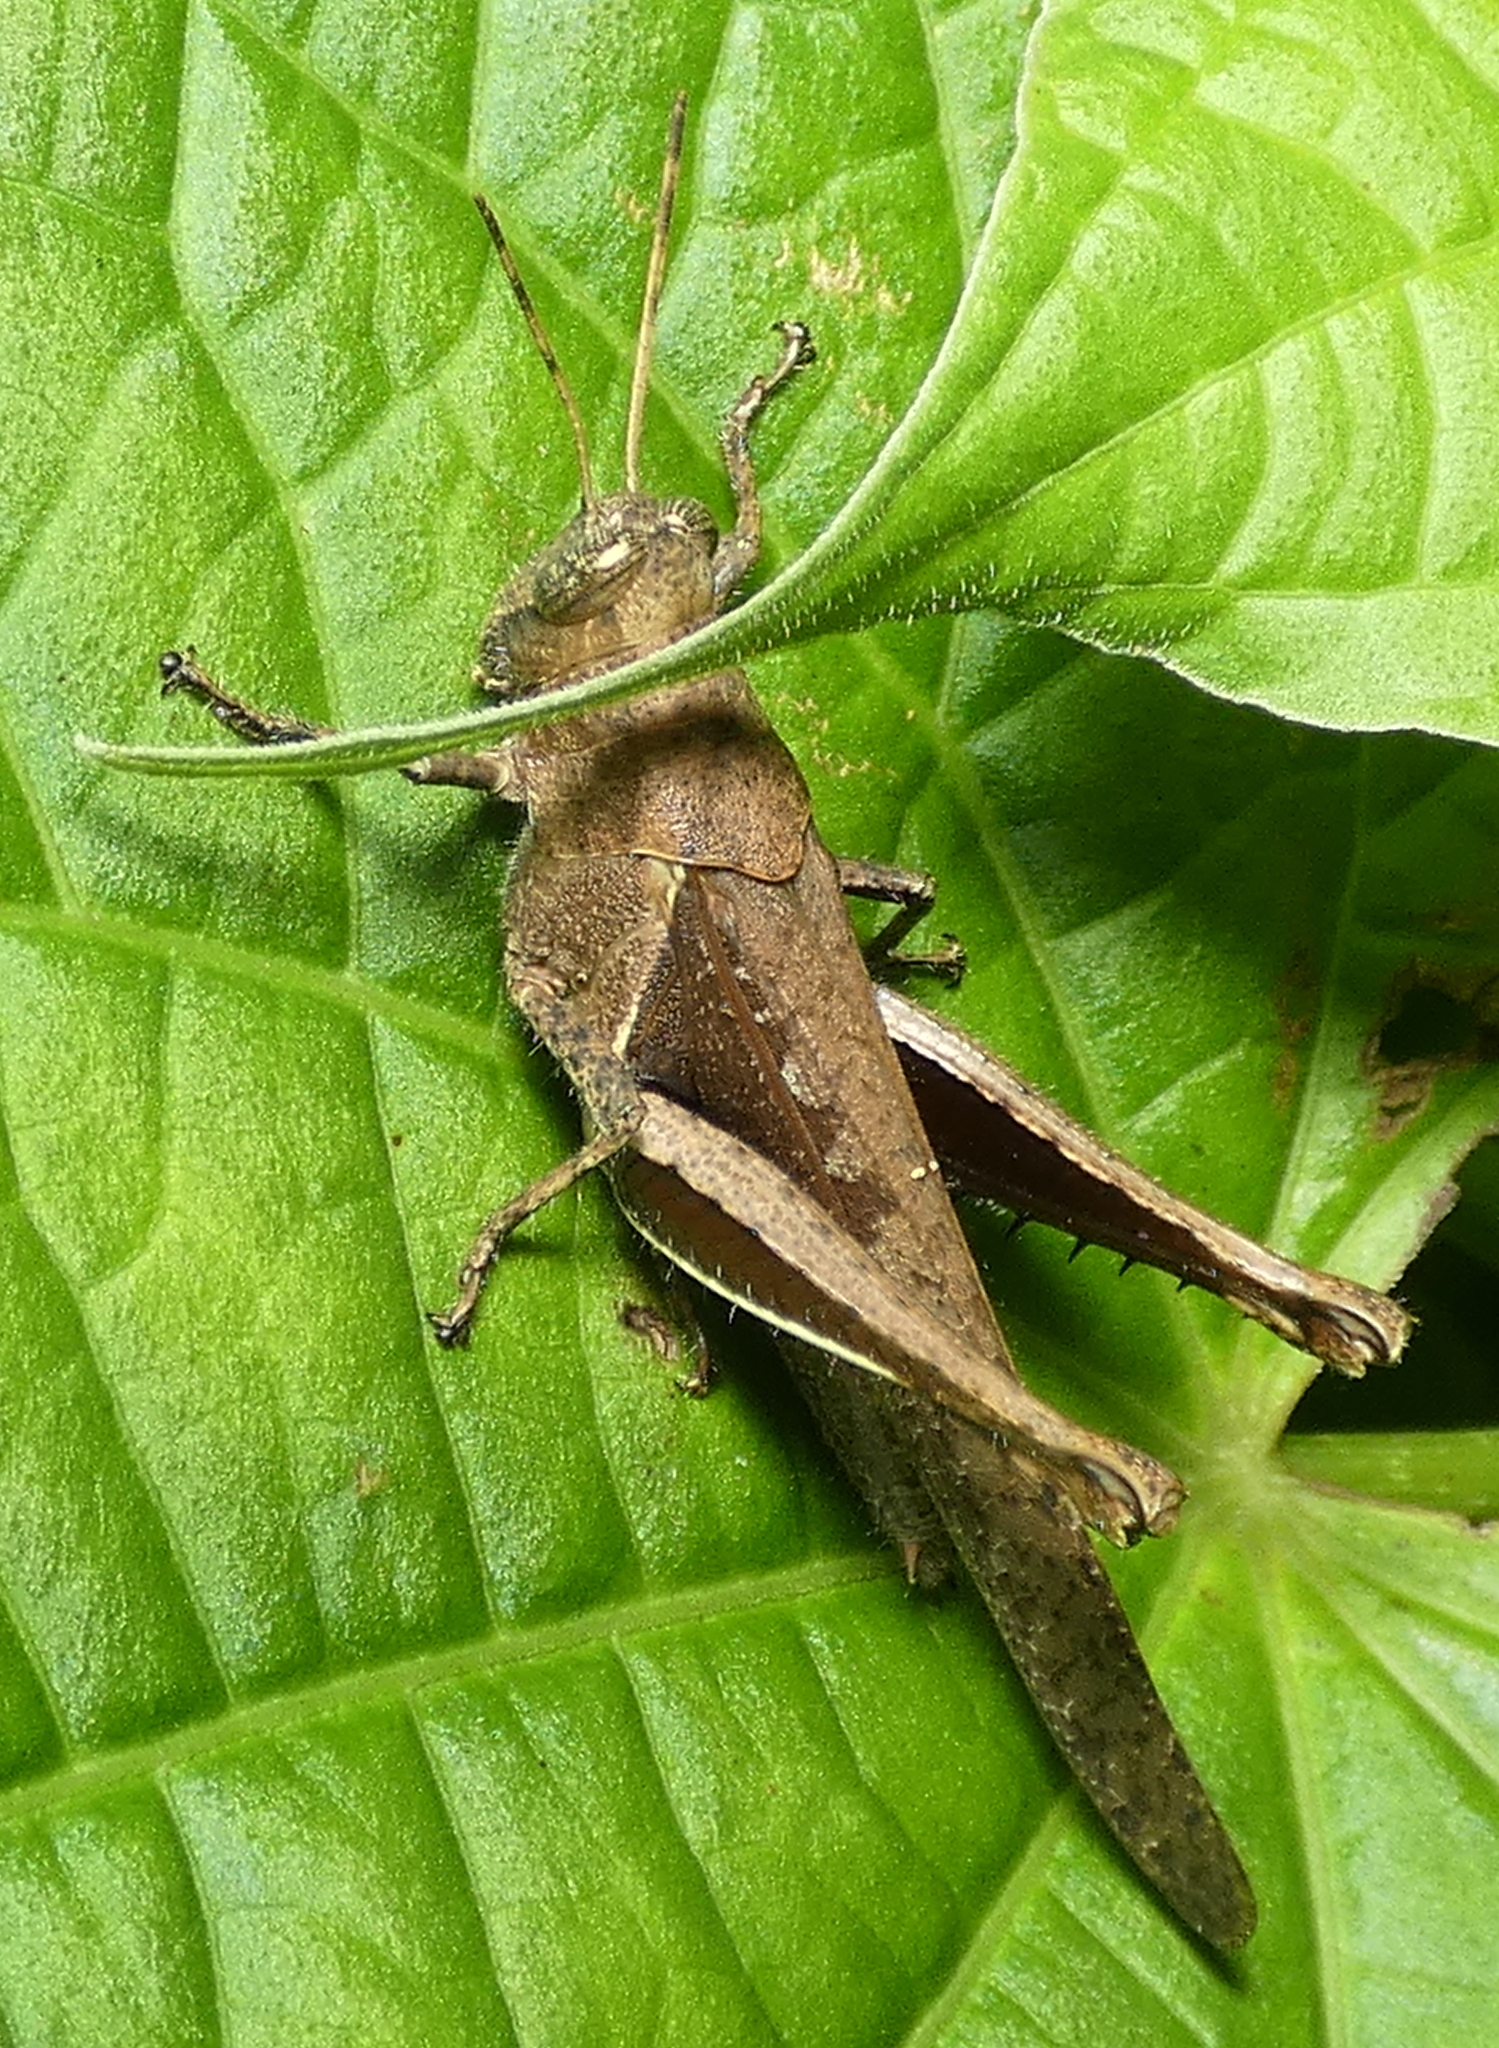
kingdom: Animalia
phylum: Arthropoda
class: Insecta
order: Orthoptera
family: Acrididae
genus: Abracris
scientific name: Abracris flavolineata
